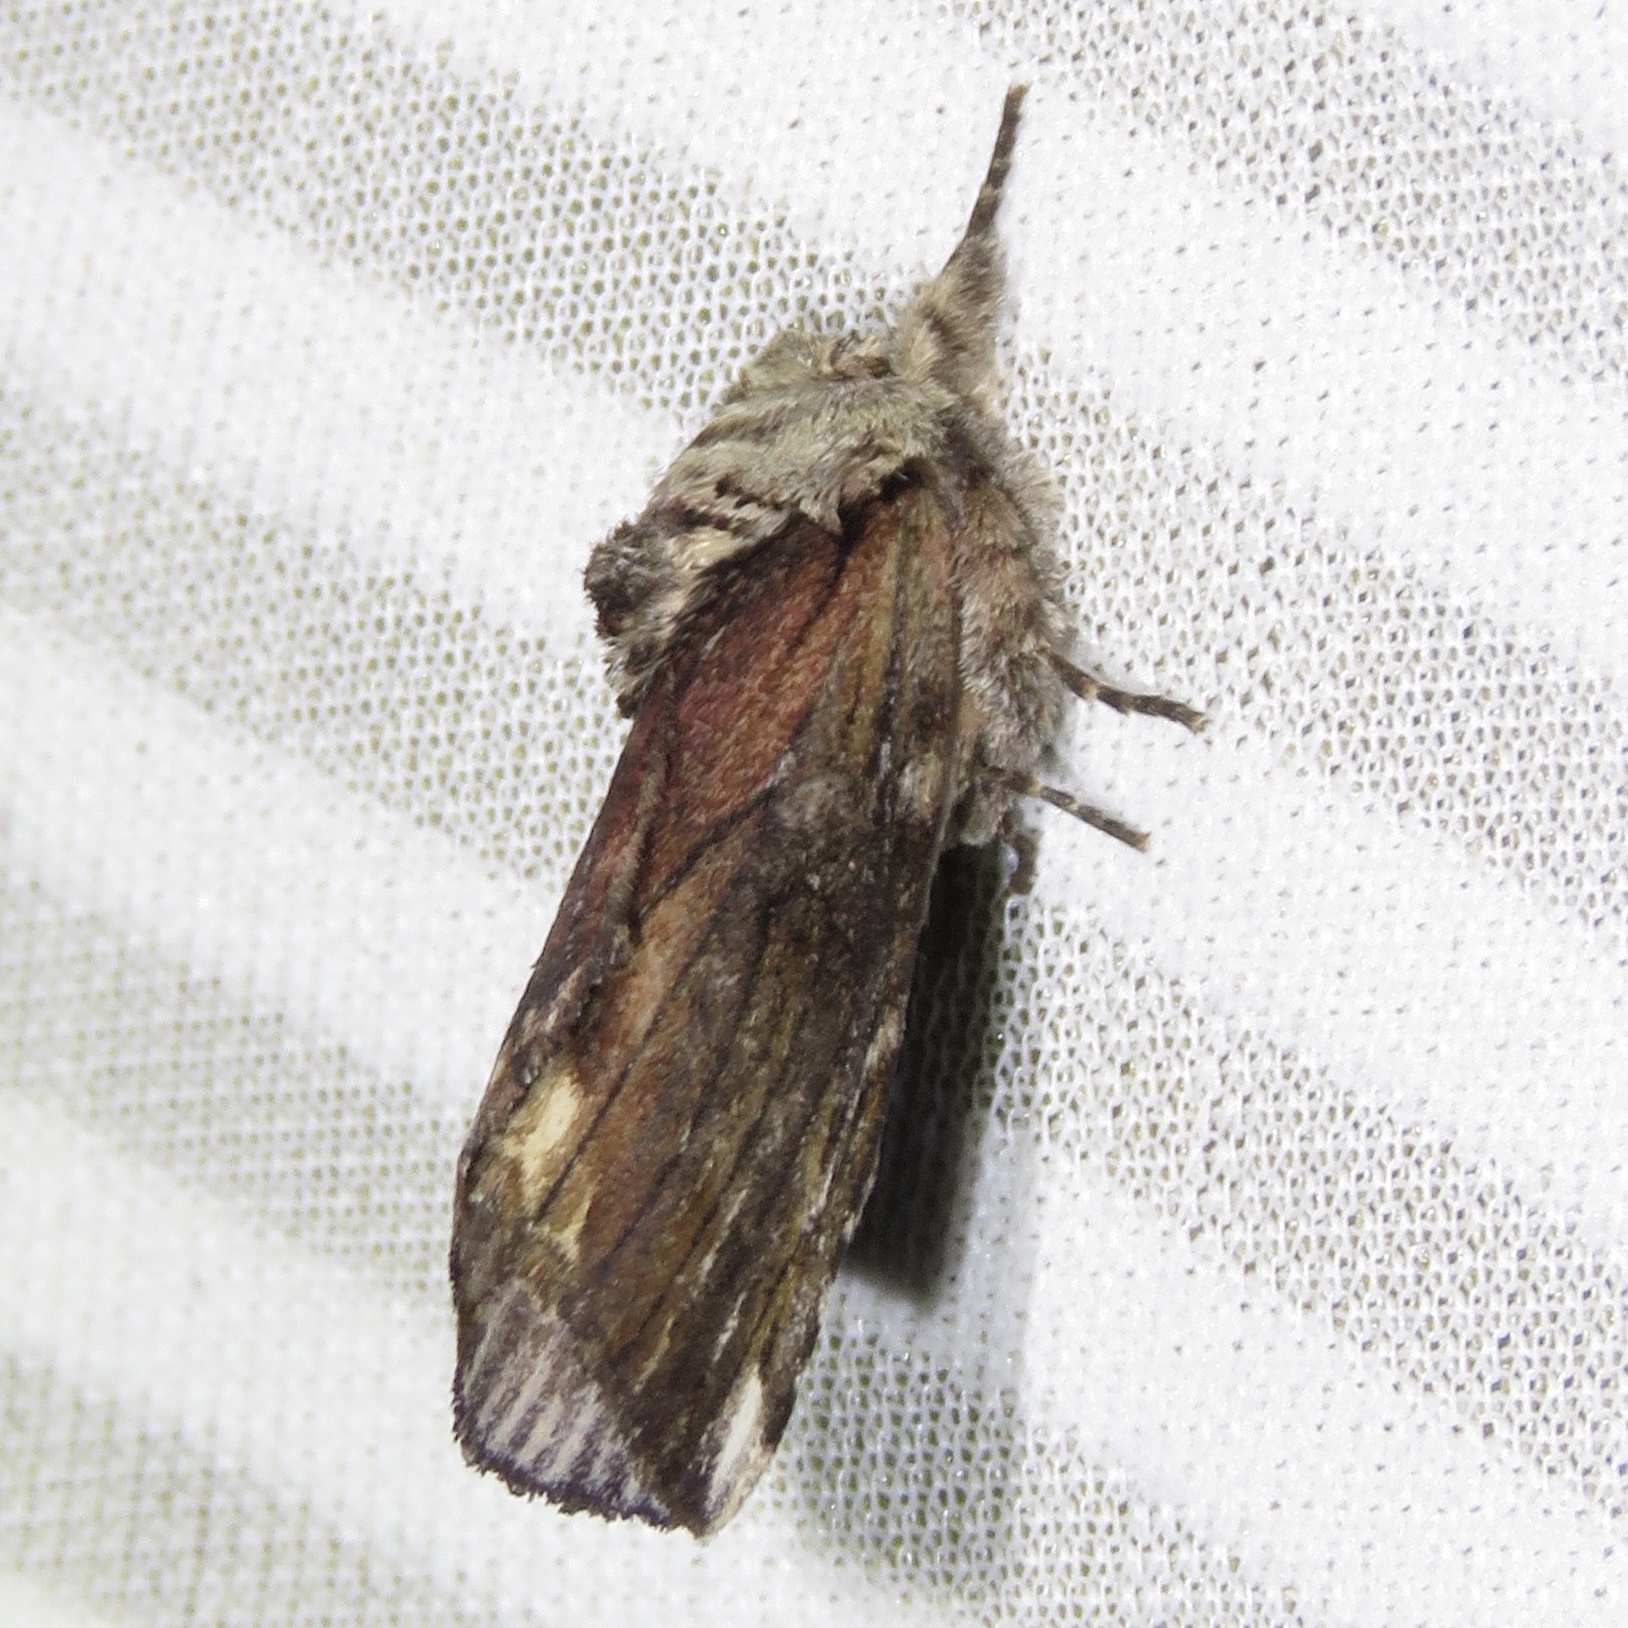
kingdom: Animalia
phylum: Arthropoda
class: Insecta
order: Lepidoptera
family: Notodontidae
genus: Schizura
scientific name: Schizura
